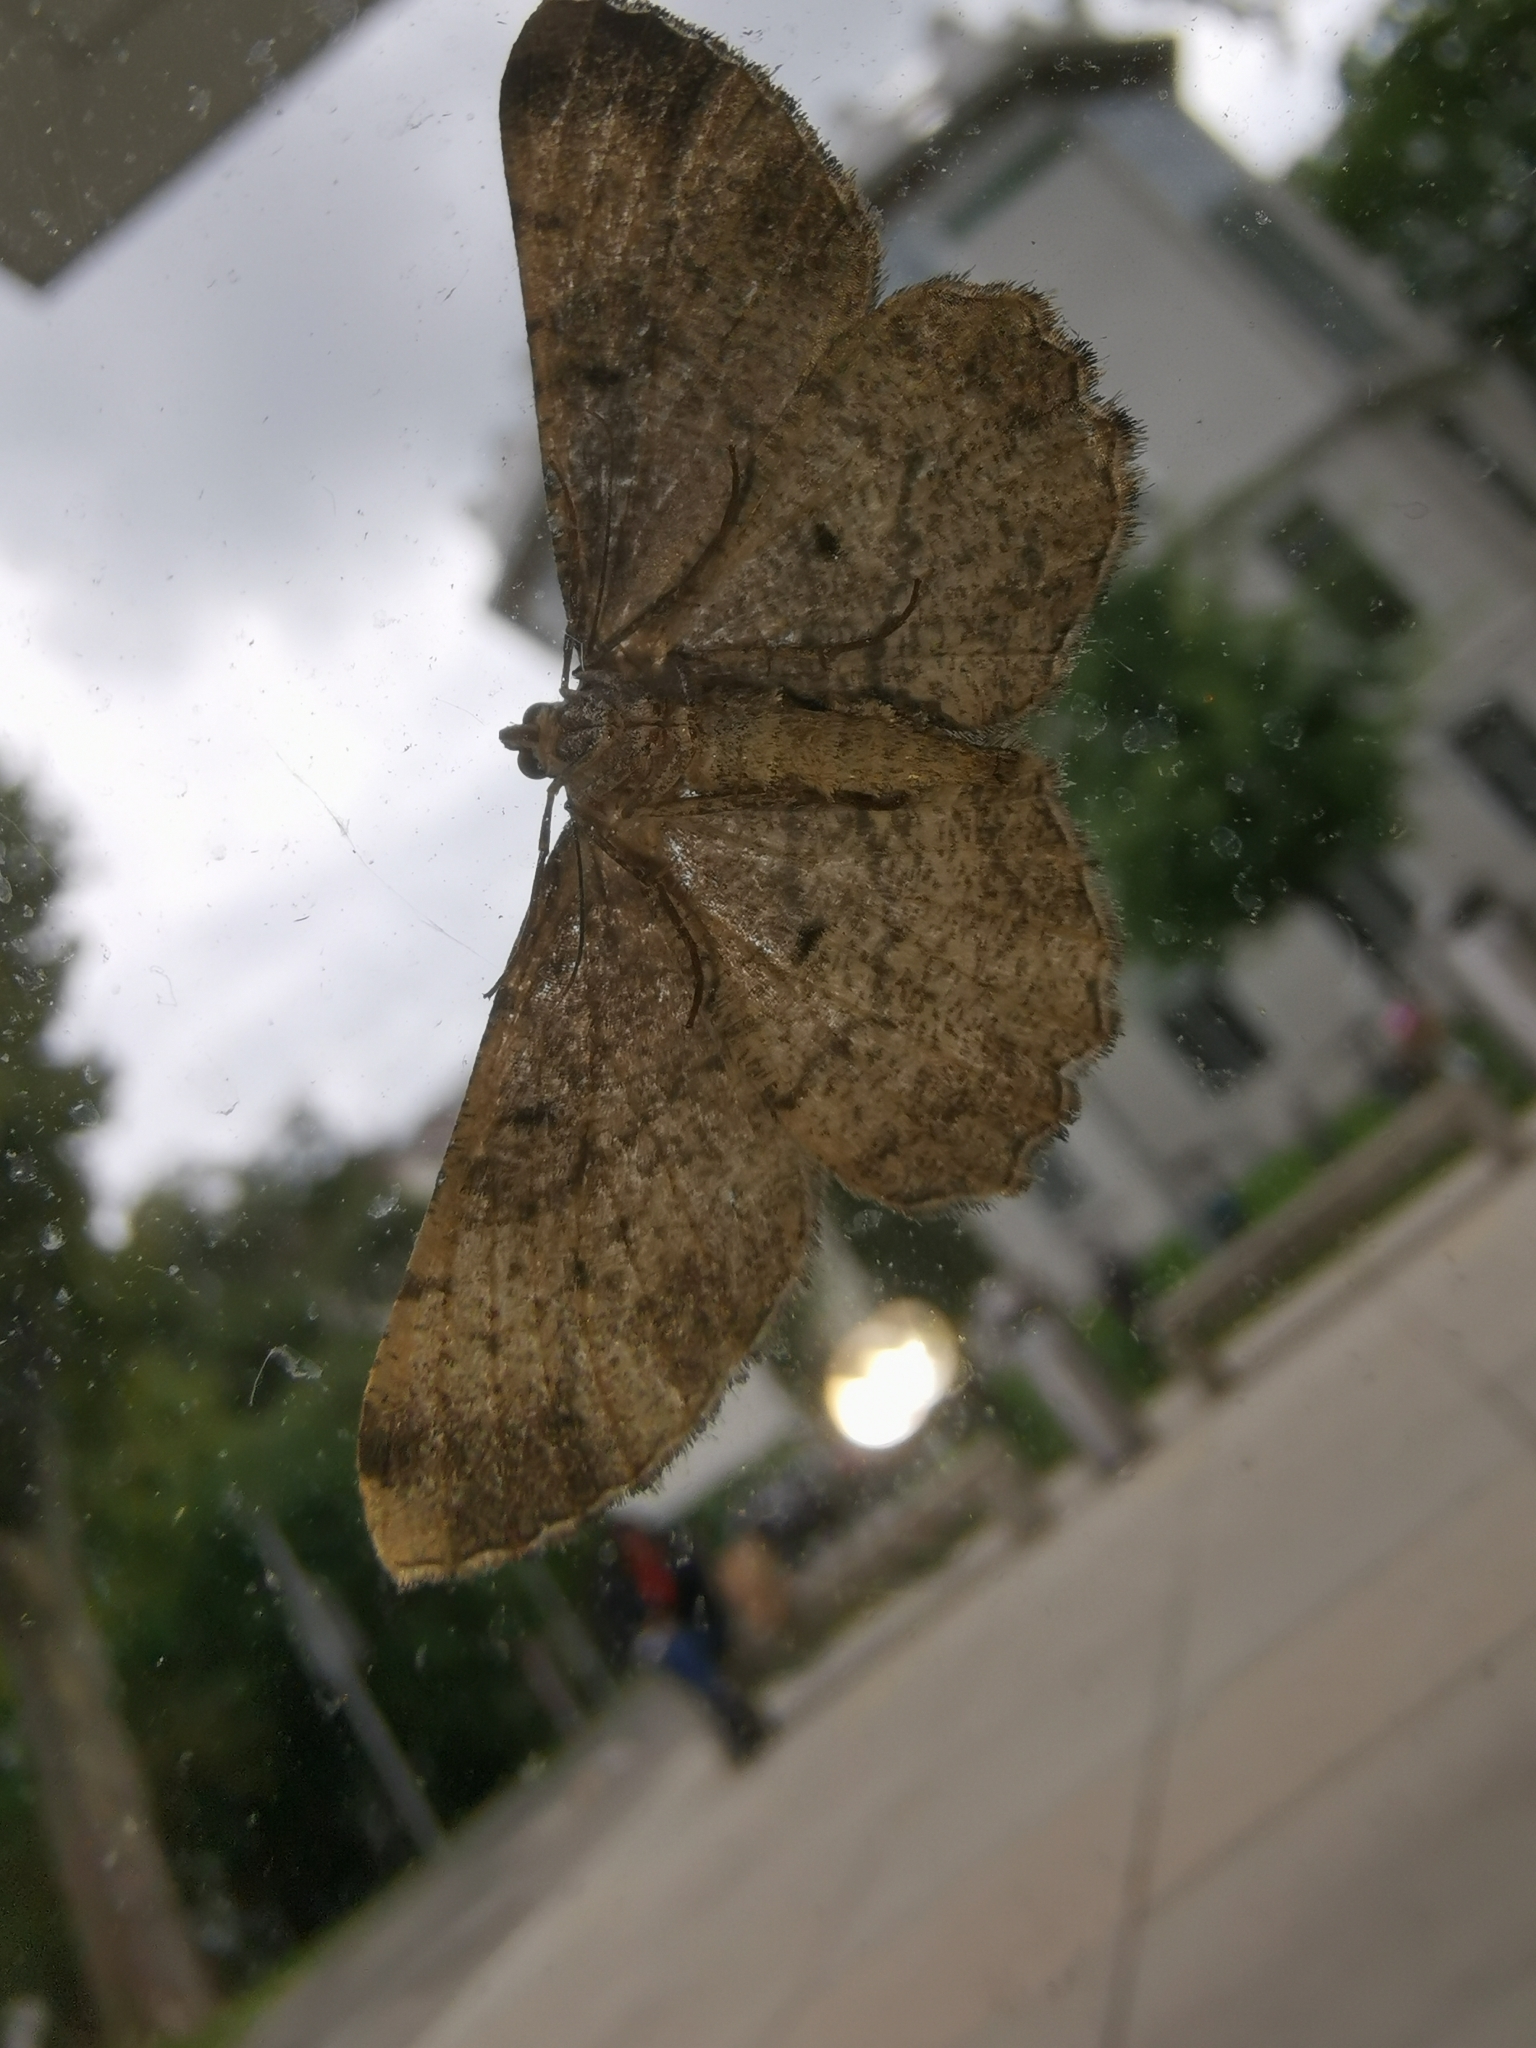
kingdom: Animalia
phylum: Arthropoda
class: Insecta
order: Lepidoptera
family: Geometridae
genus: Peribatodes
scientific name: Peribatodes rhomboidaria
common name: Willow beauty
